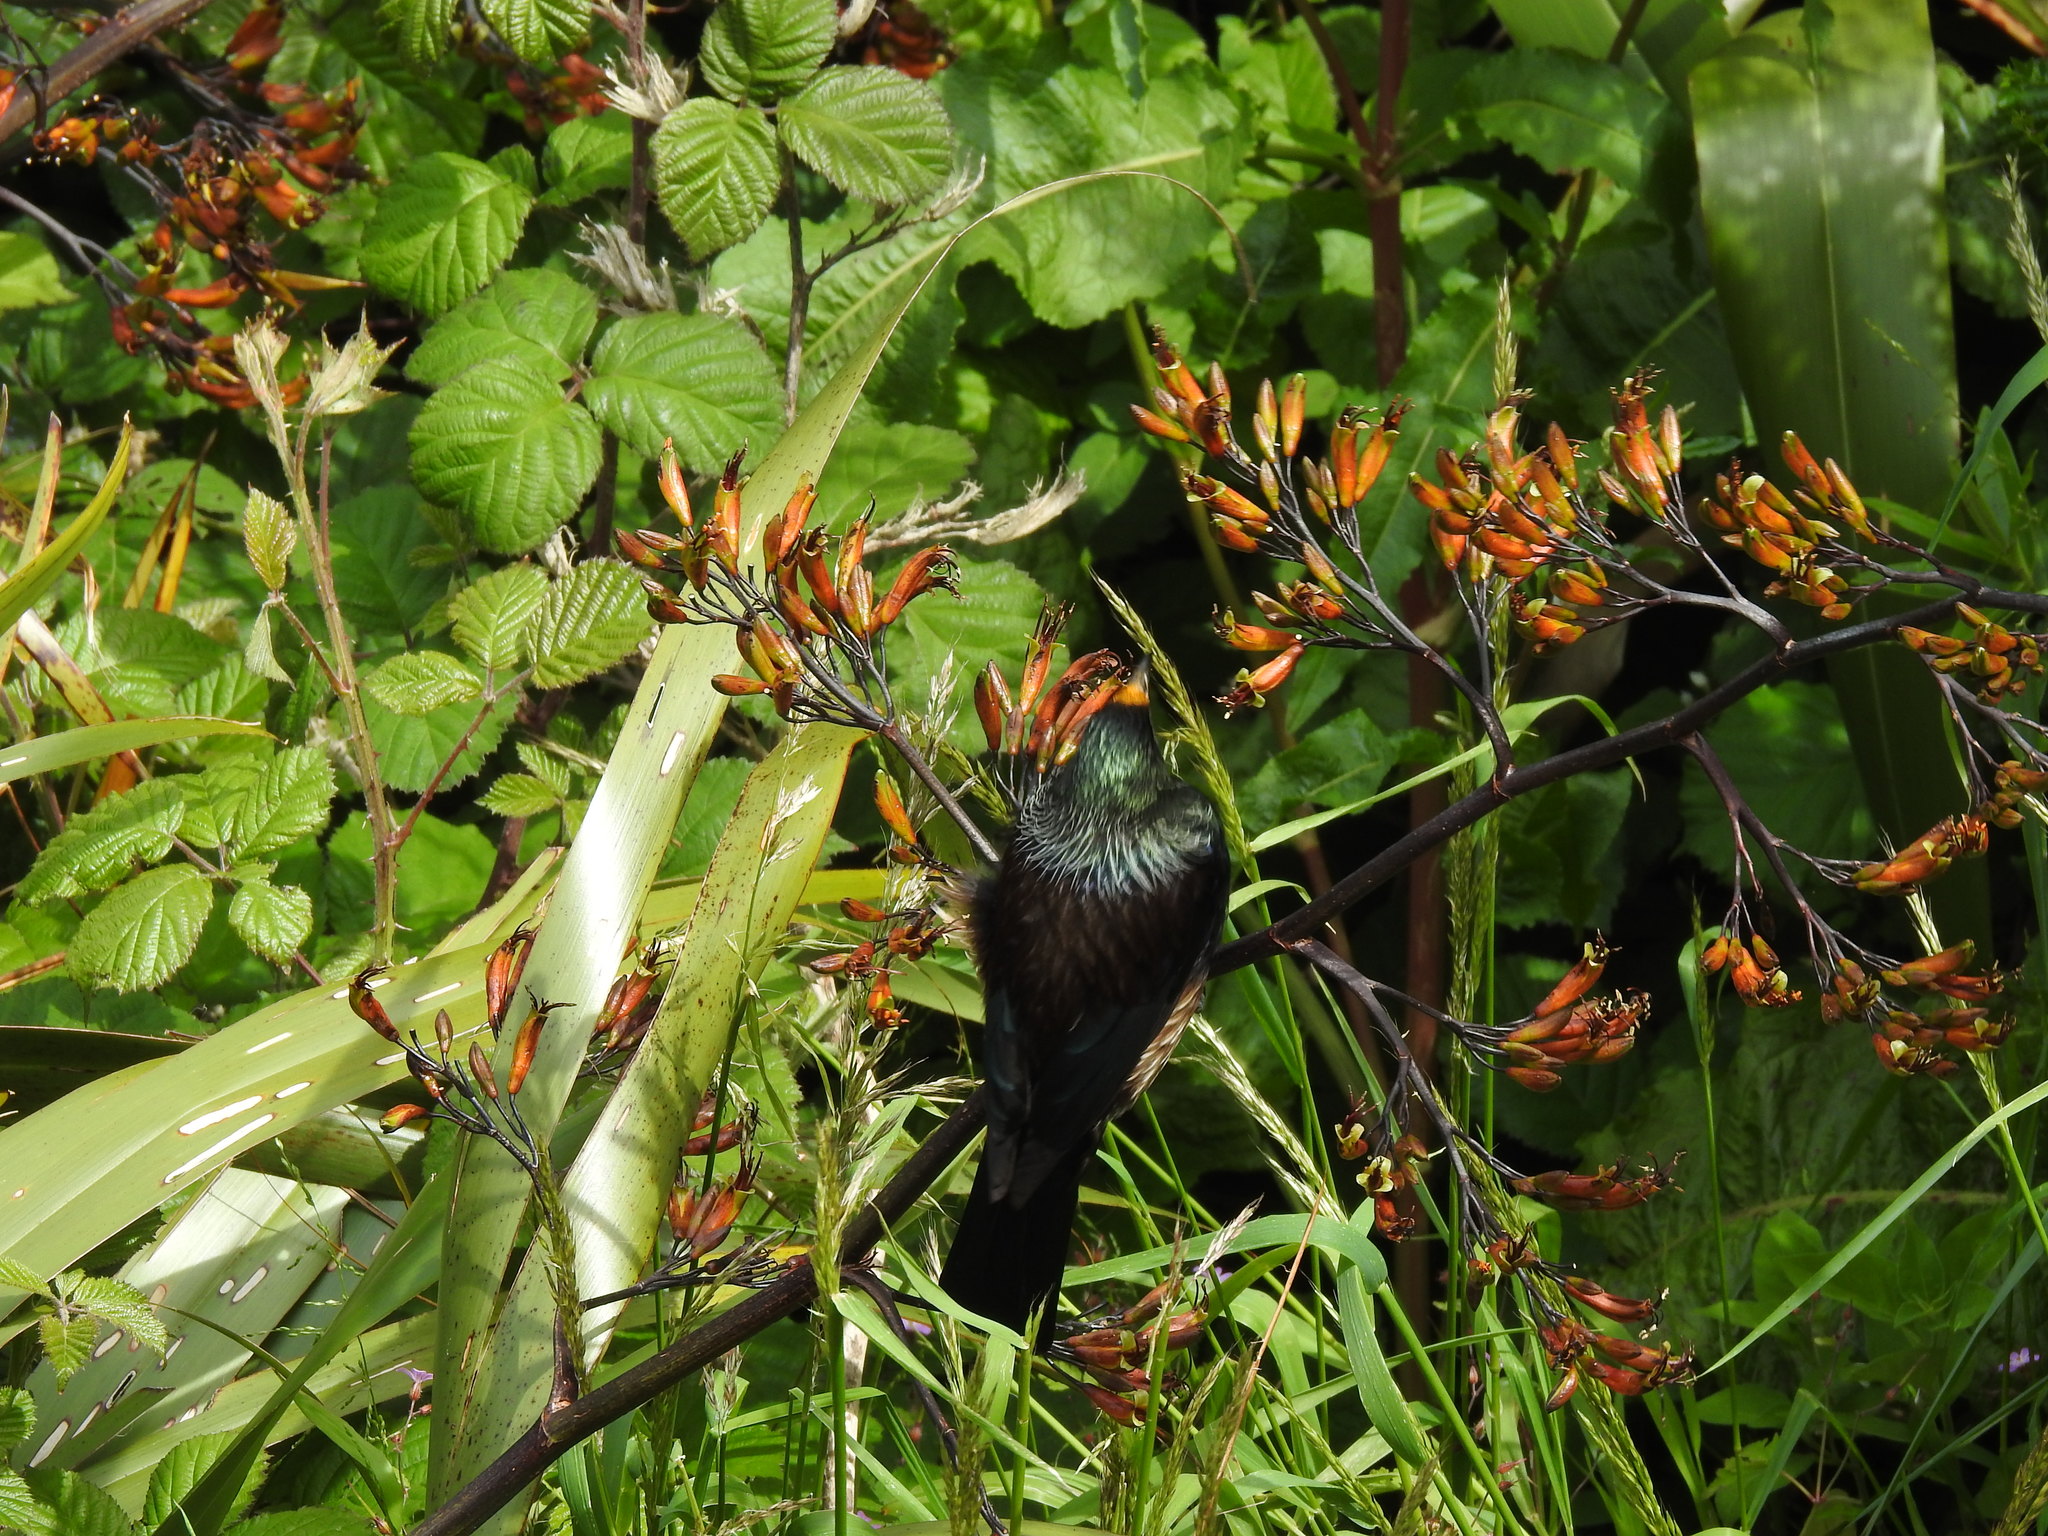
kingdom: Animalia
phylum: Chordata
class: Aves
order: Passeriformes
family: Meliphagidae
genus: Prosthemadera
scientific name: Prosthemadera novaeseelandiae
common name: Tui
